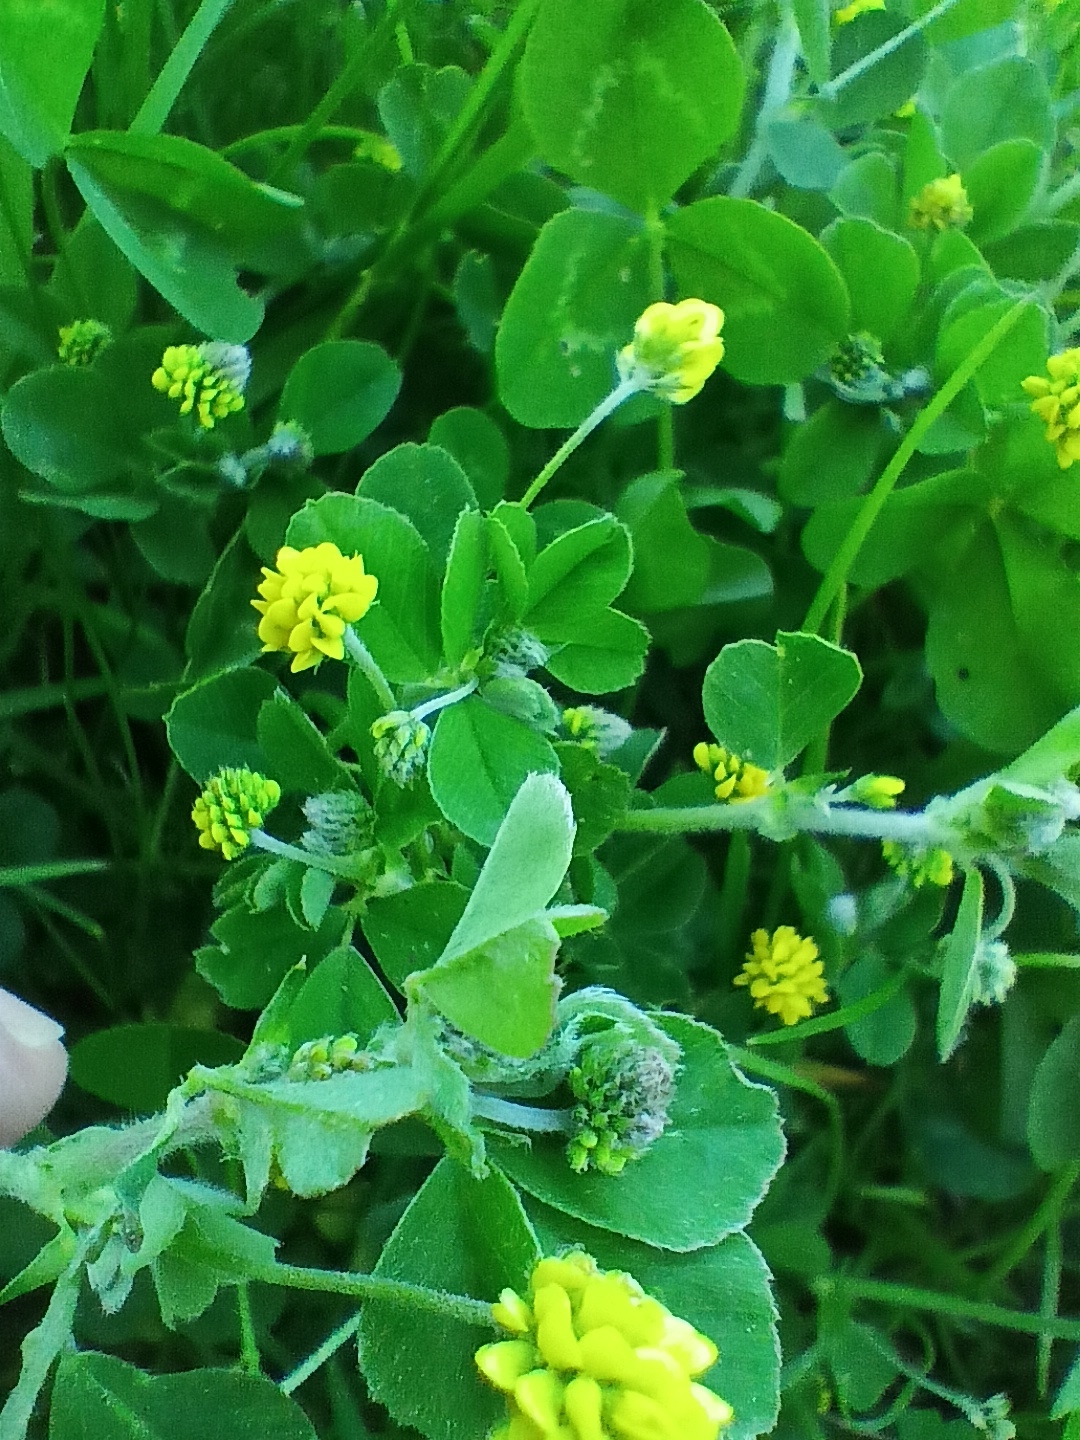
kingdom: Plantae
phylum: Tracheophyta
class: Magnoliopsida
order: Fabales
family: Fabaceae
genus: Medicago
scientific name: Medicago lupulina
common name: Black medick
